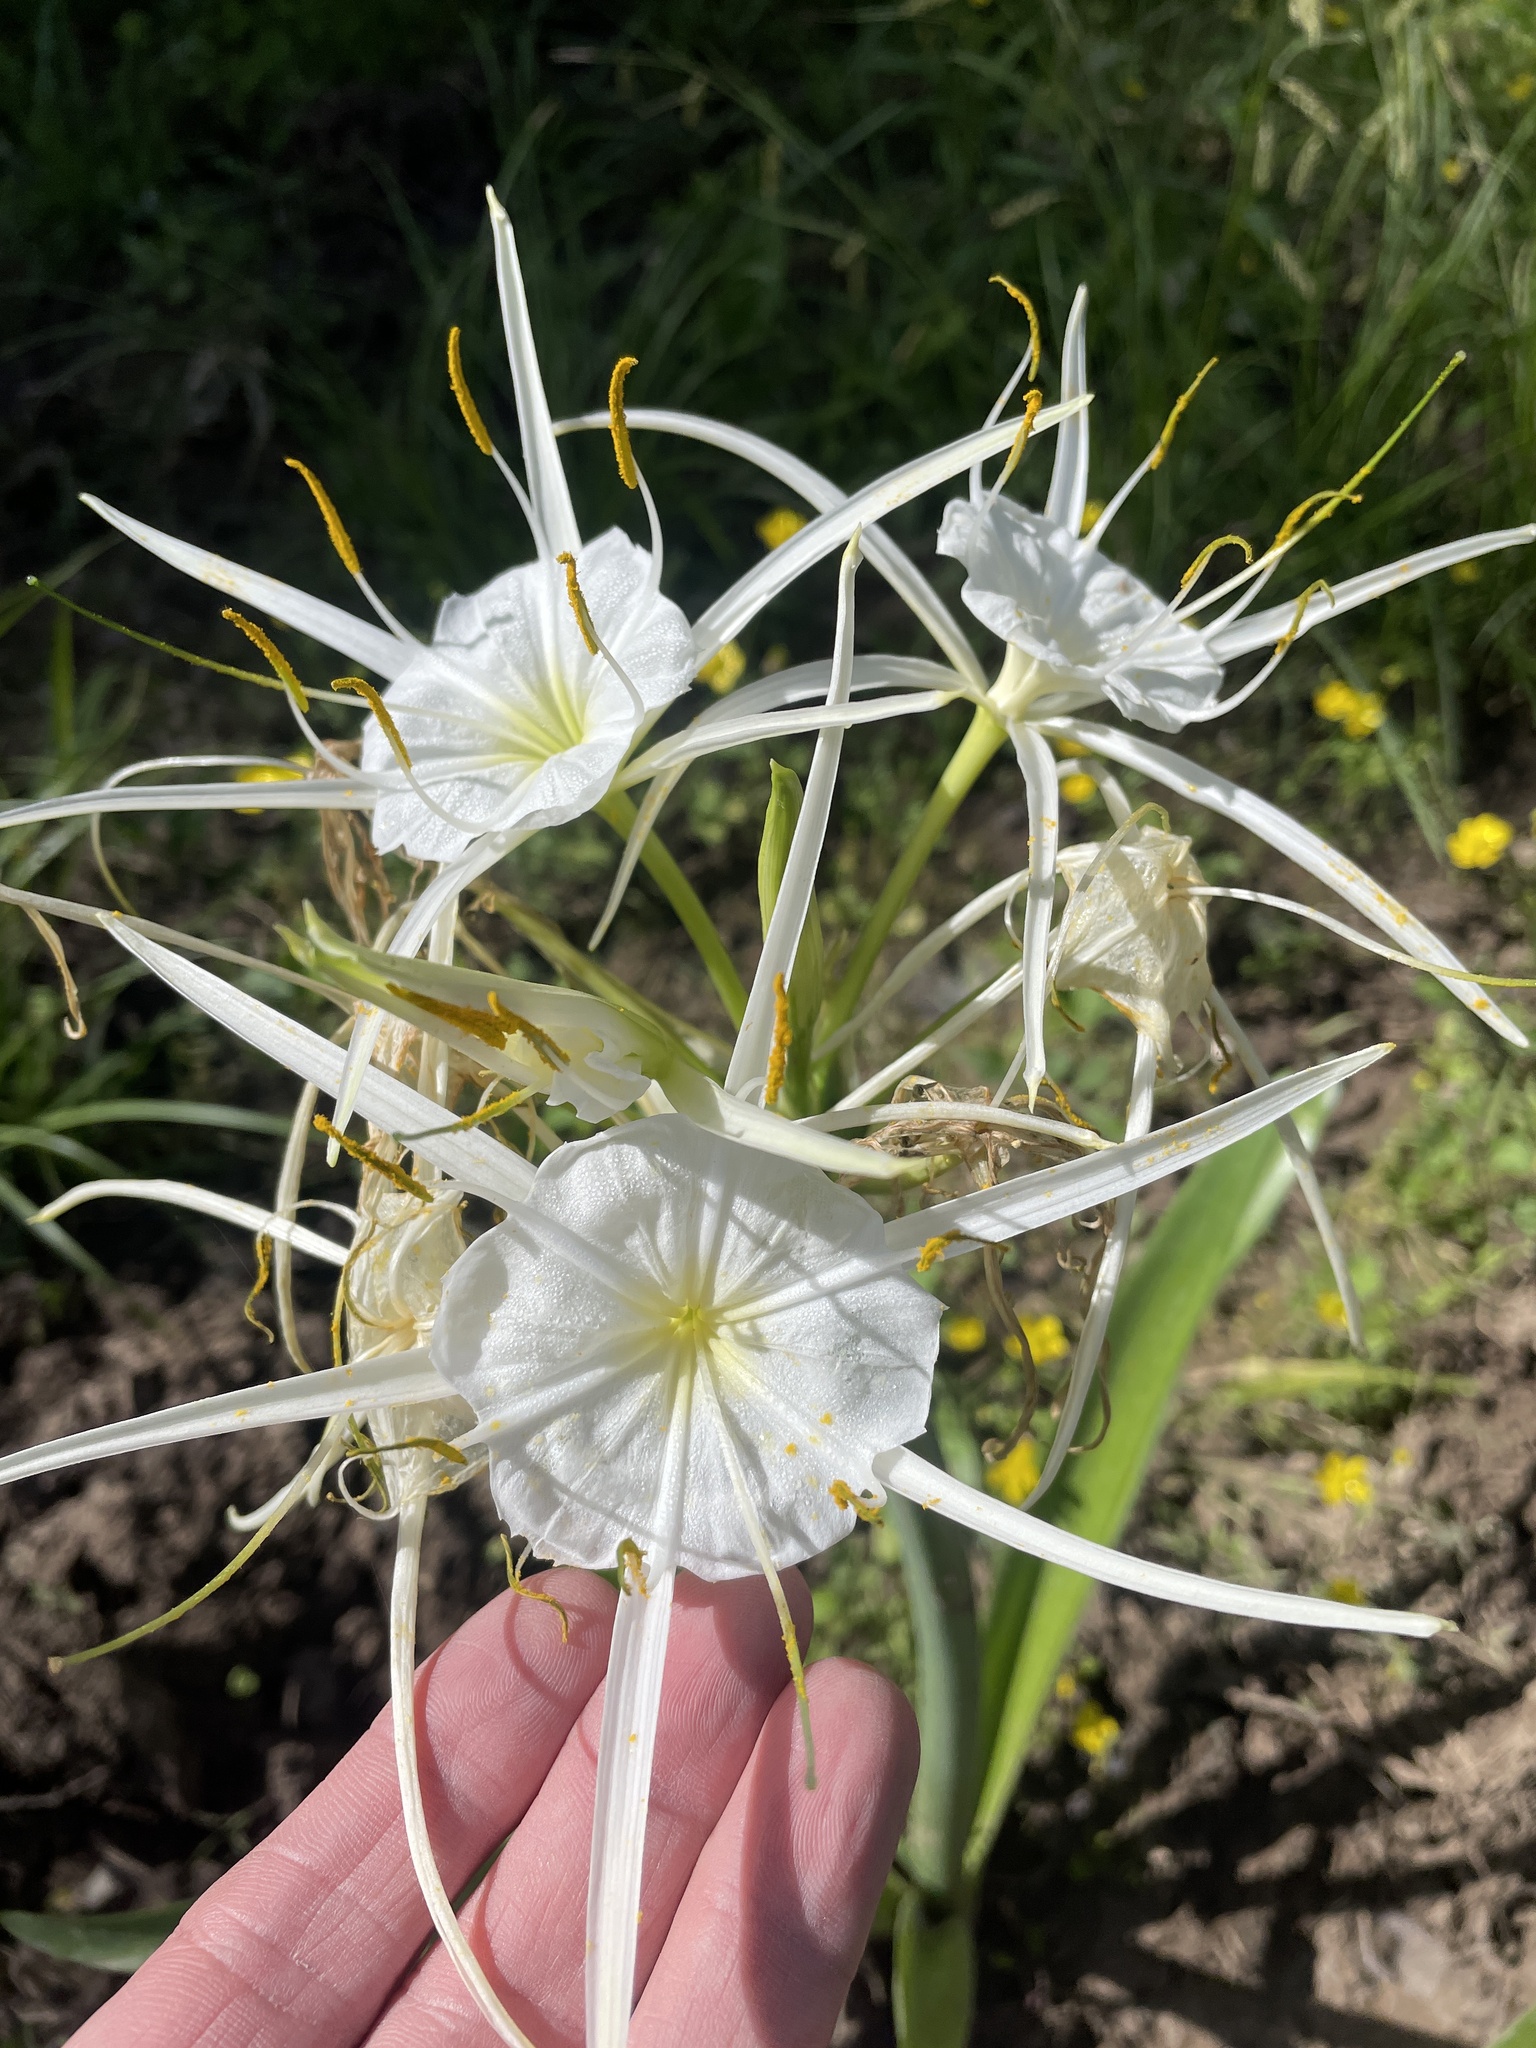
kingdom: Plantae
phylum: Tracheophyta
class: Liliopsida
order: Asparagales
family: Amaryllidaceae
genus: Hymenocallis
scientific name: Hymenocallis liriosme
